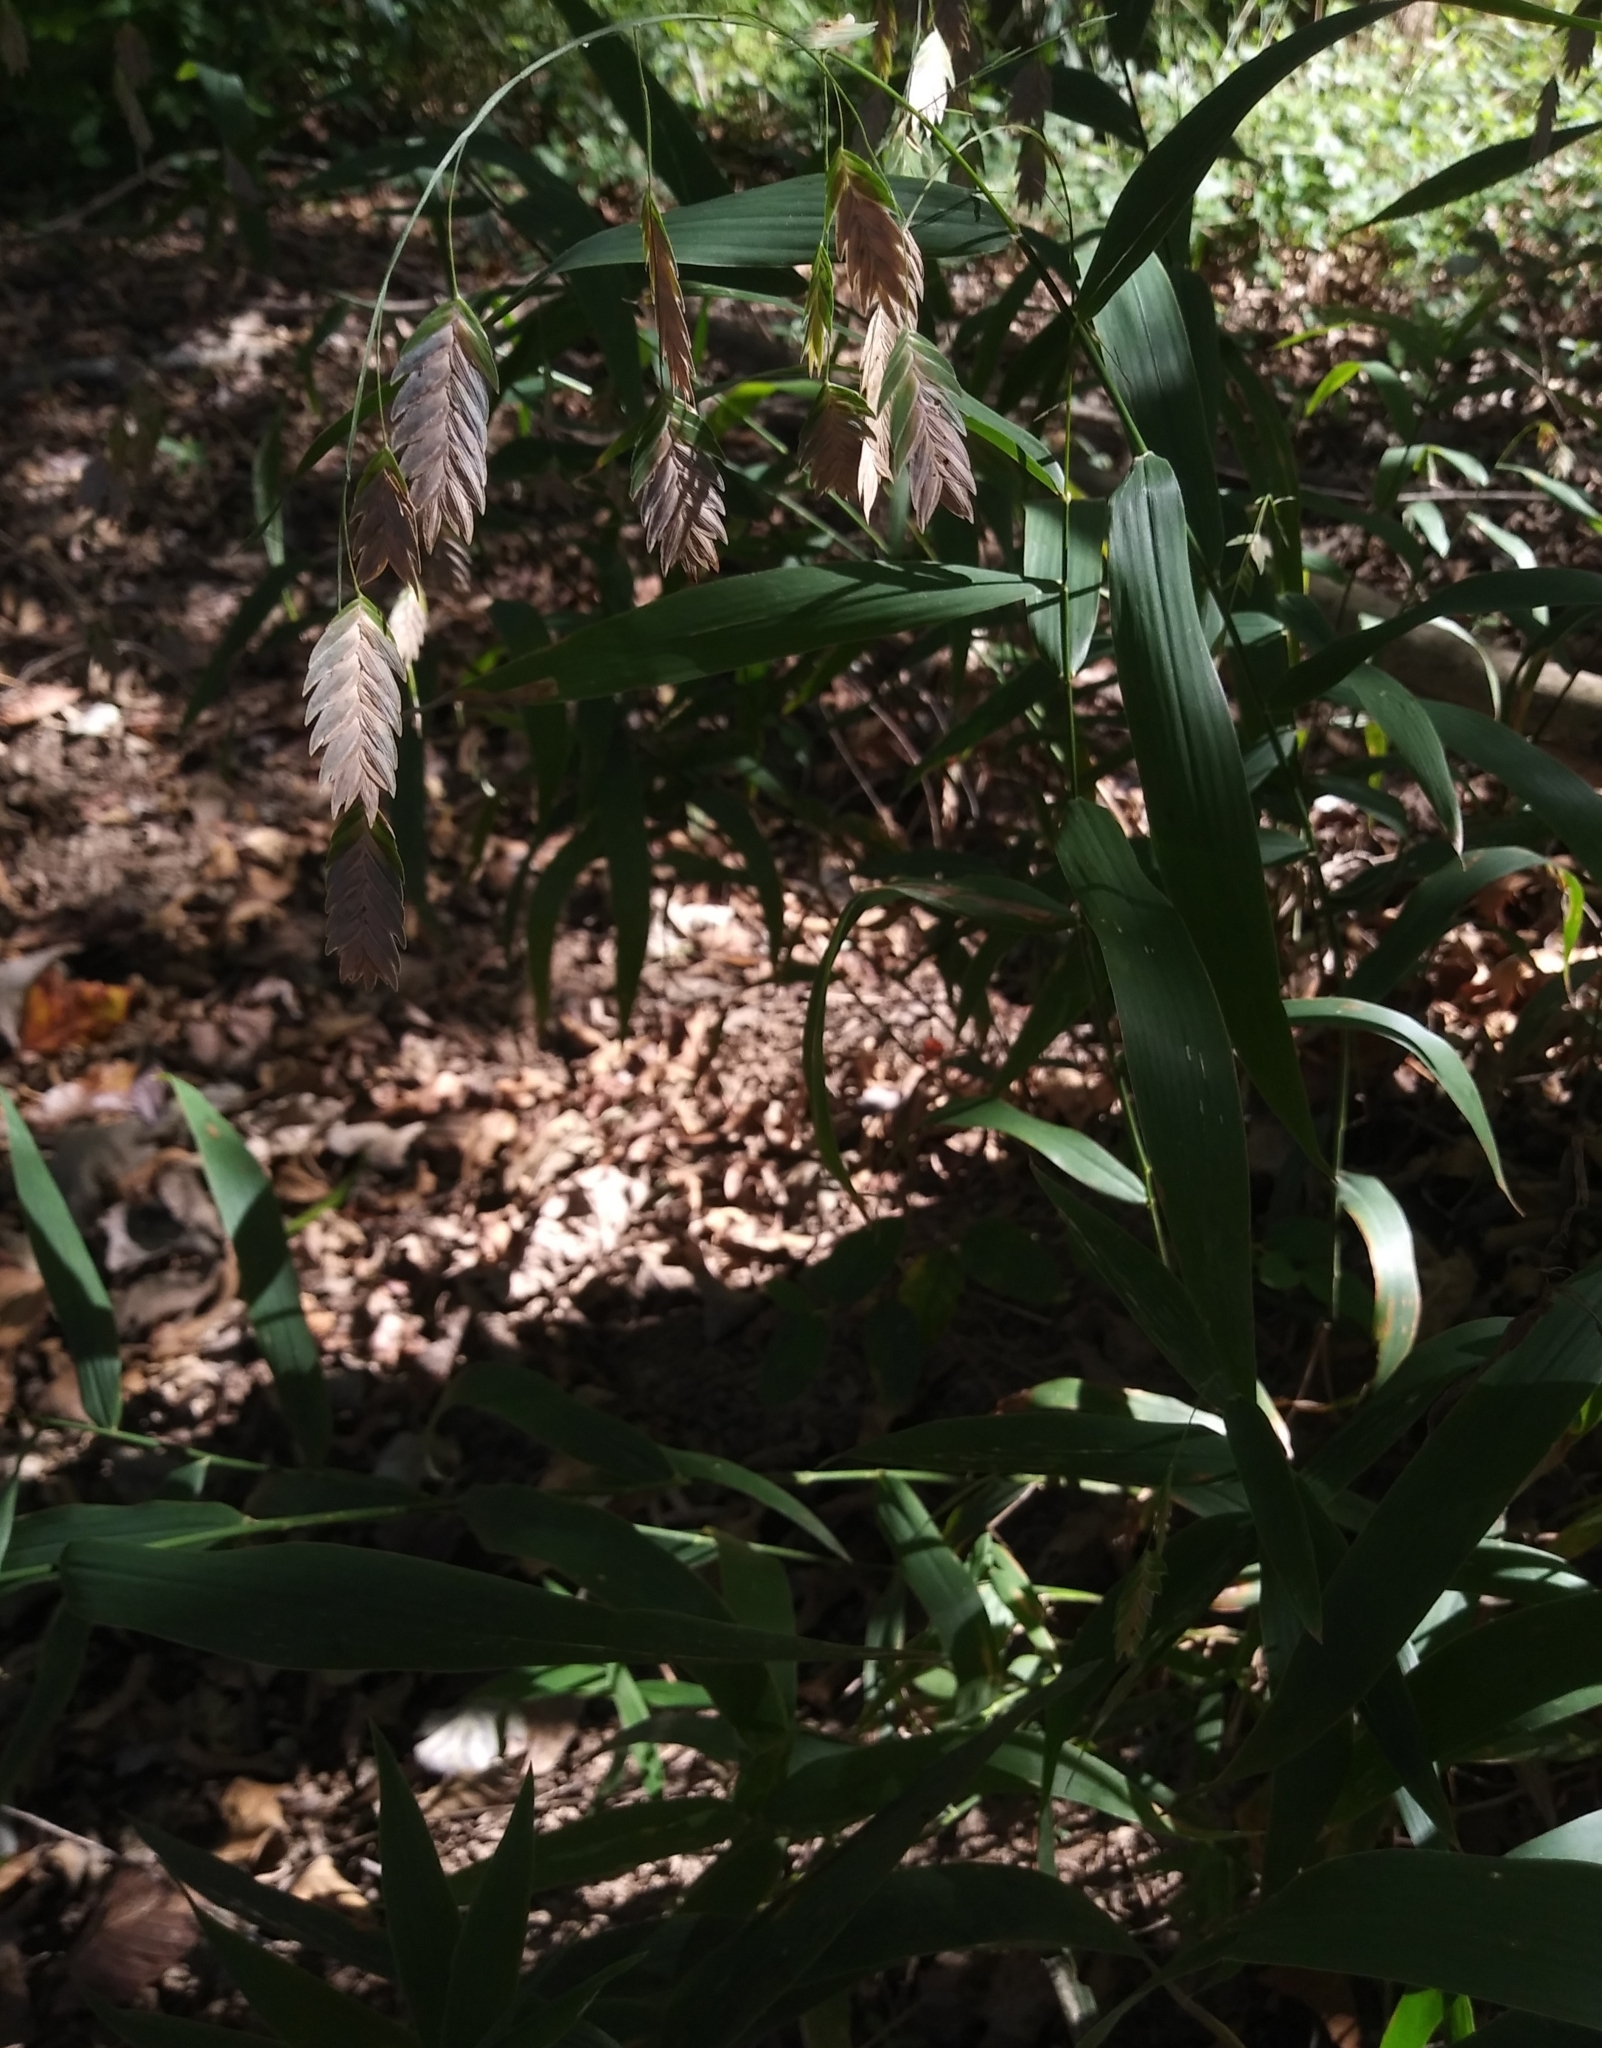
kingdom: Plantae
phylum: Tracheophyta
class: Liliopsida
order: Poales
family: Poaceae
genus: Chasmanthium
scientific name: Chasmanthium latifolium
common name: Broad-leaved chasmanthium
